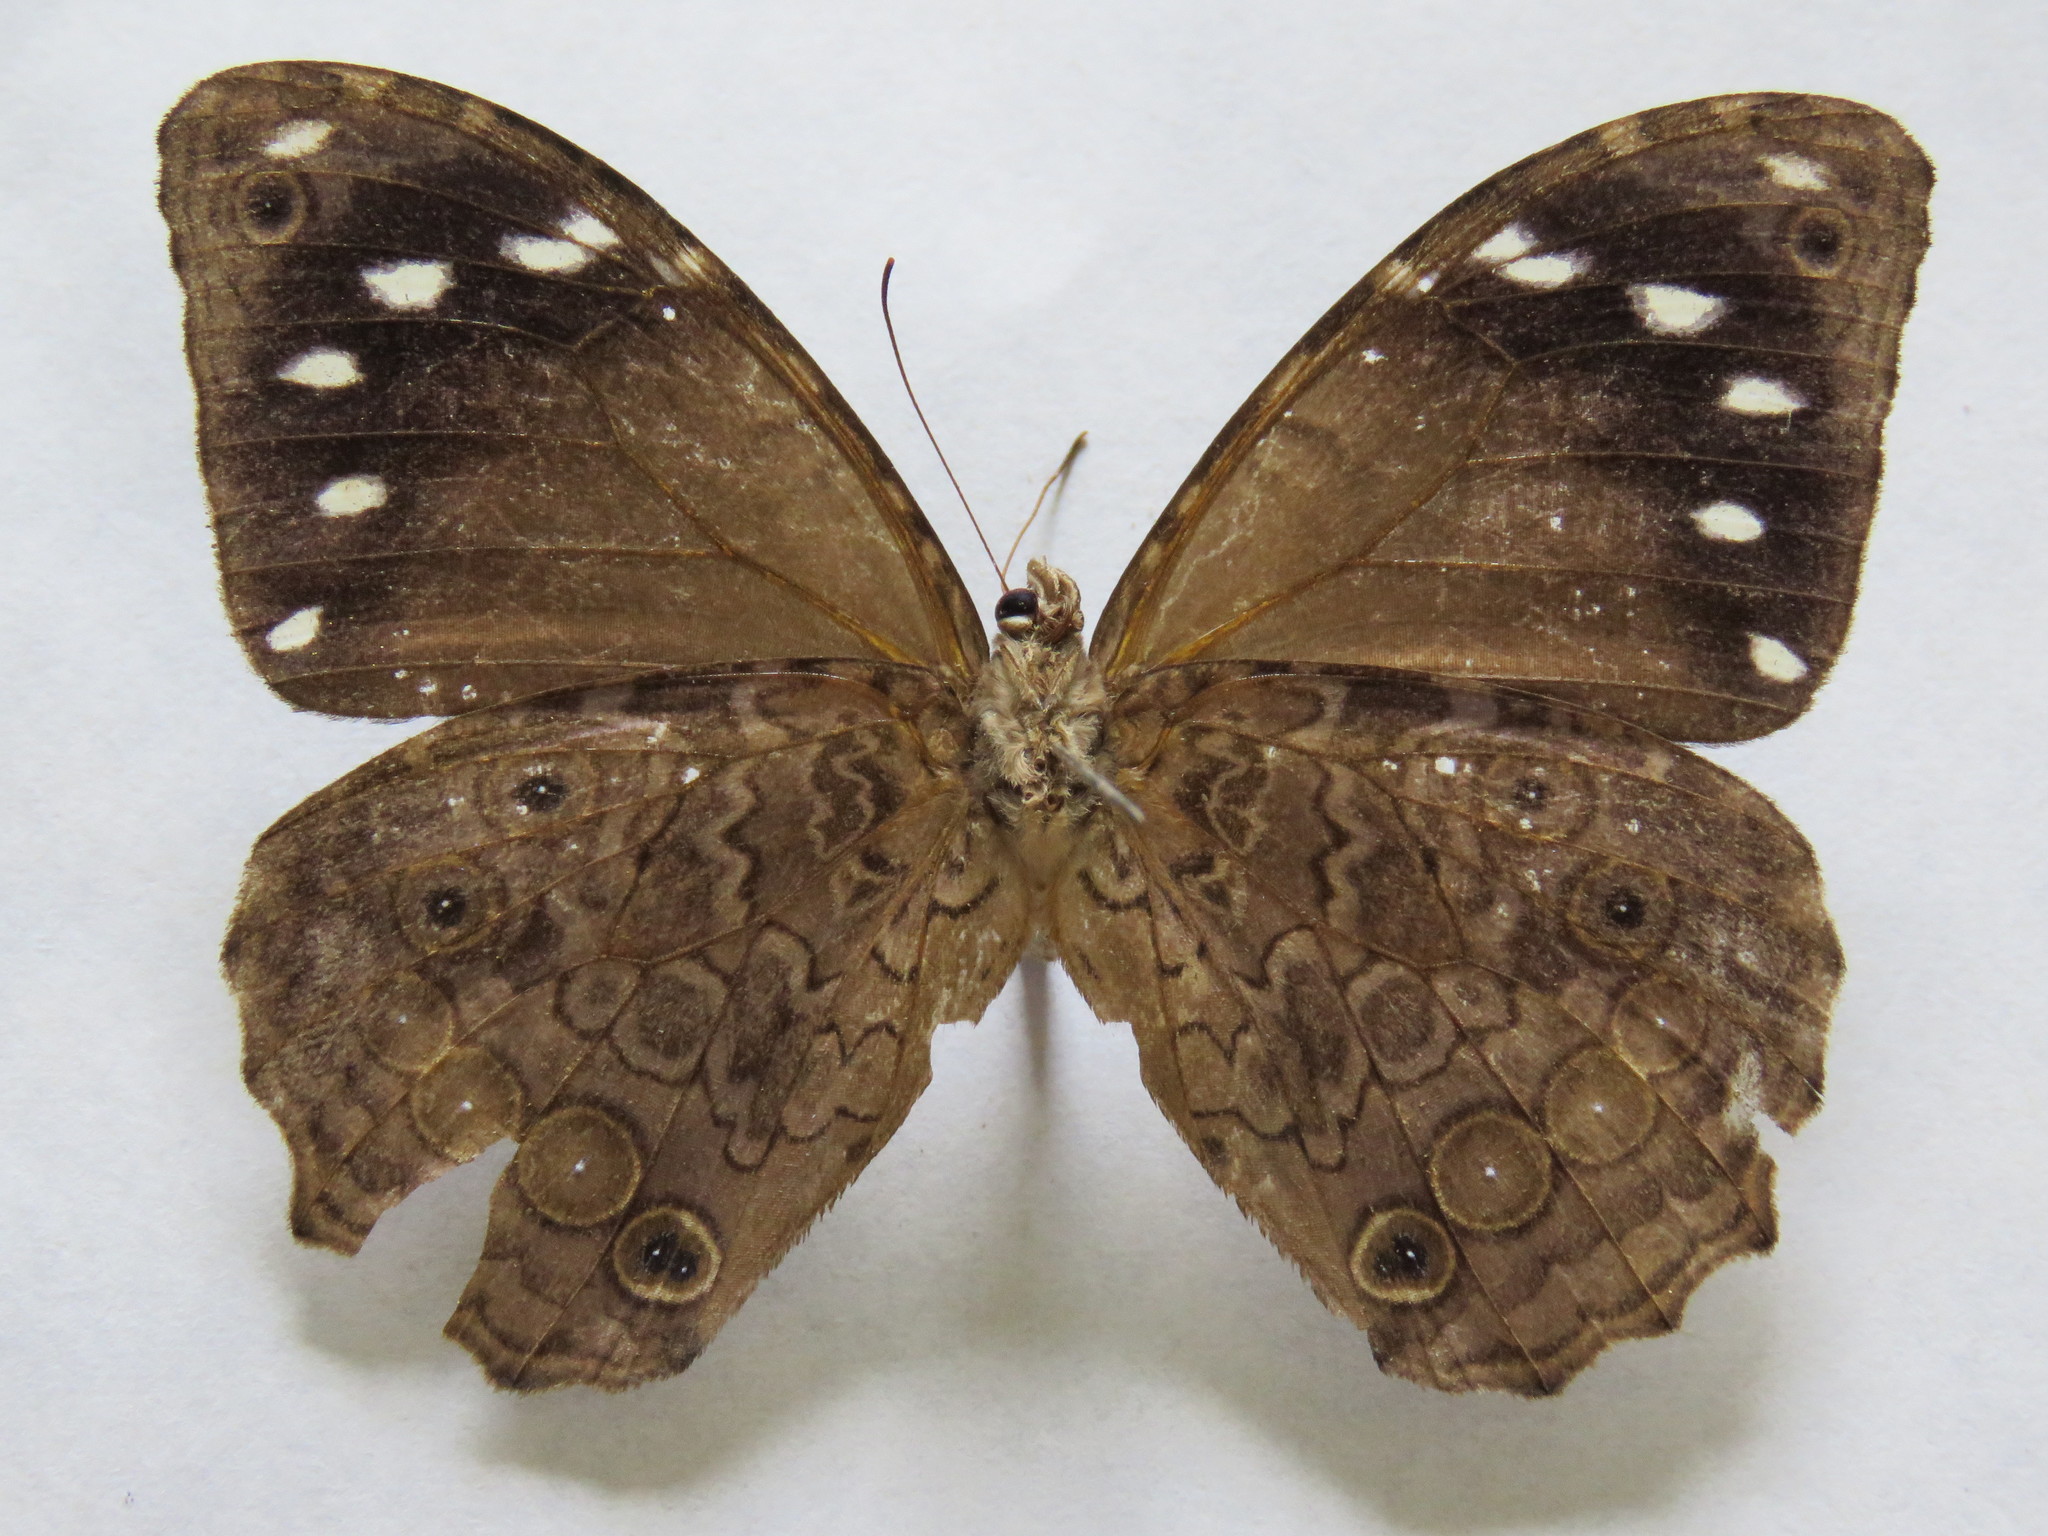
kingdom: Animalia
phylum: Arthropoda
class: Insecta
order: Lepidoptera
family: Nymphalidae
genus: Manataria
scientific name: Manataria maculata
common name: White-spotted satyr
